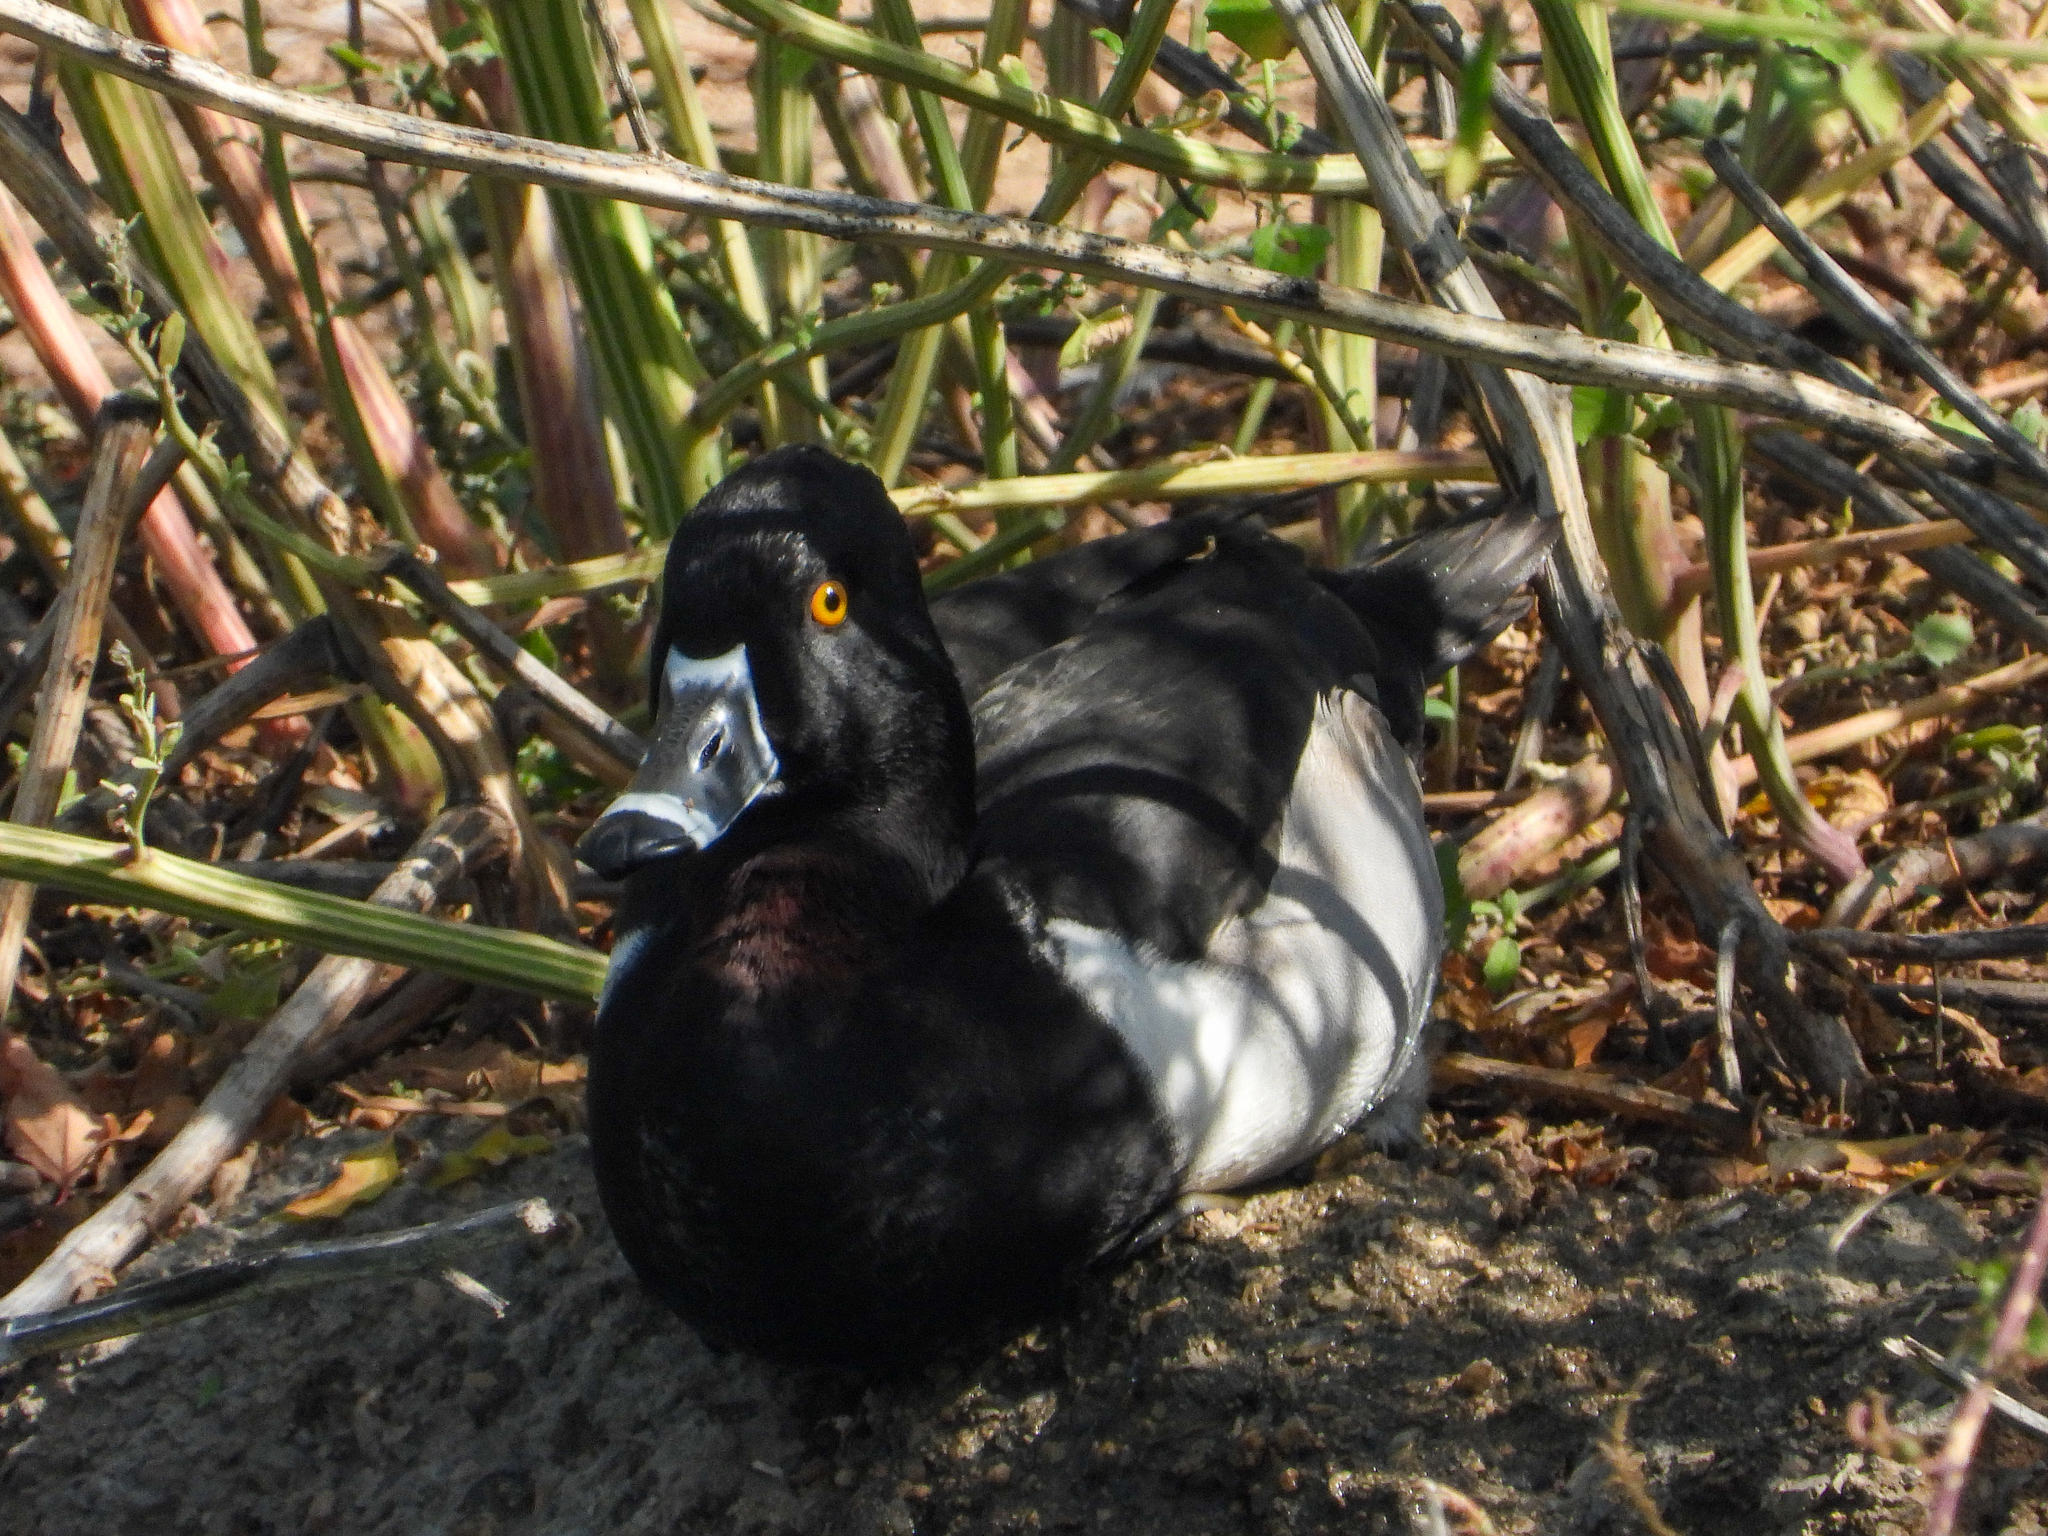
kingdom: Animalia
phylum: Chordata
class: Aves
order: Anseriformes
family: Anatidae
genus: Aythya
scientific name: Aythya collaris
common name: Ring-necked duck
